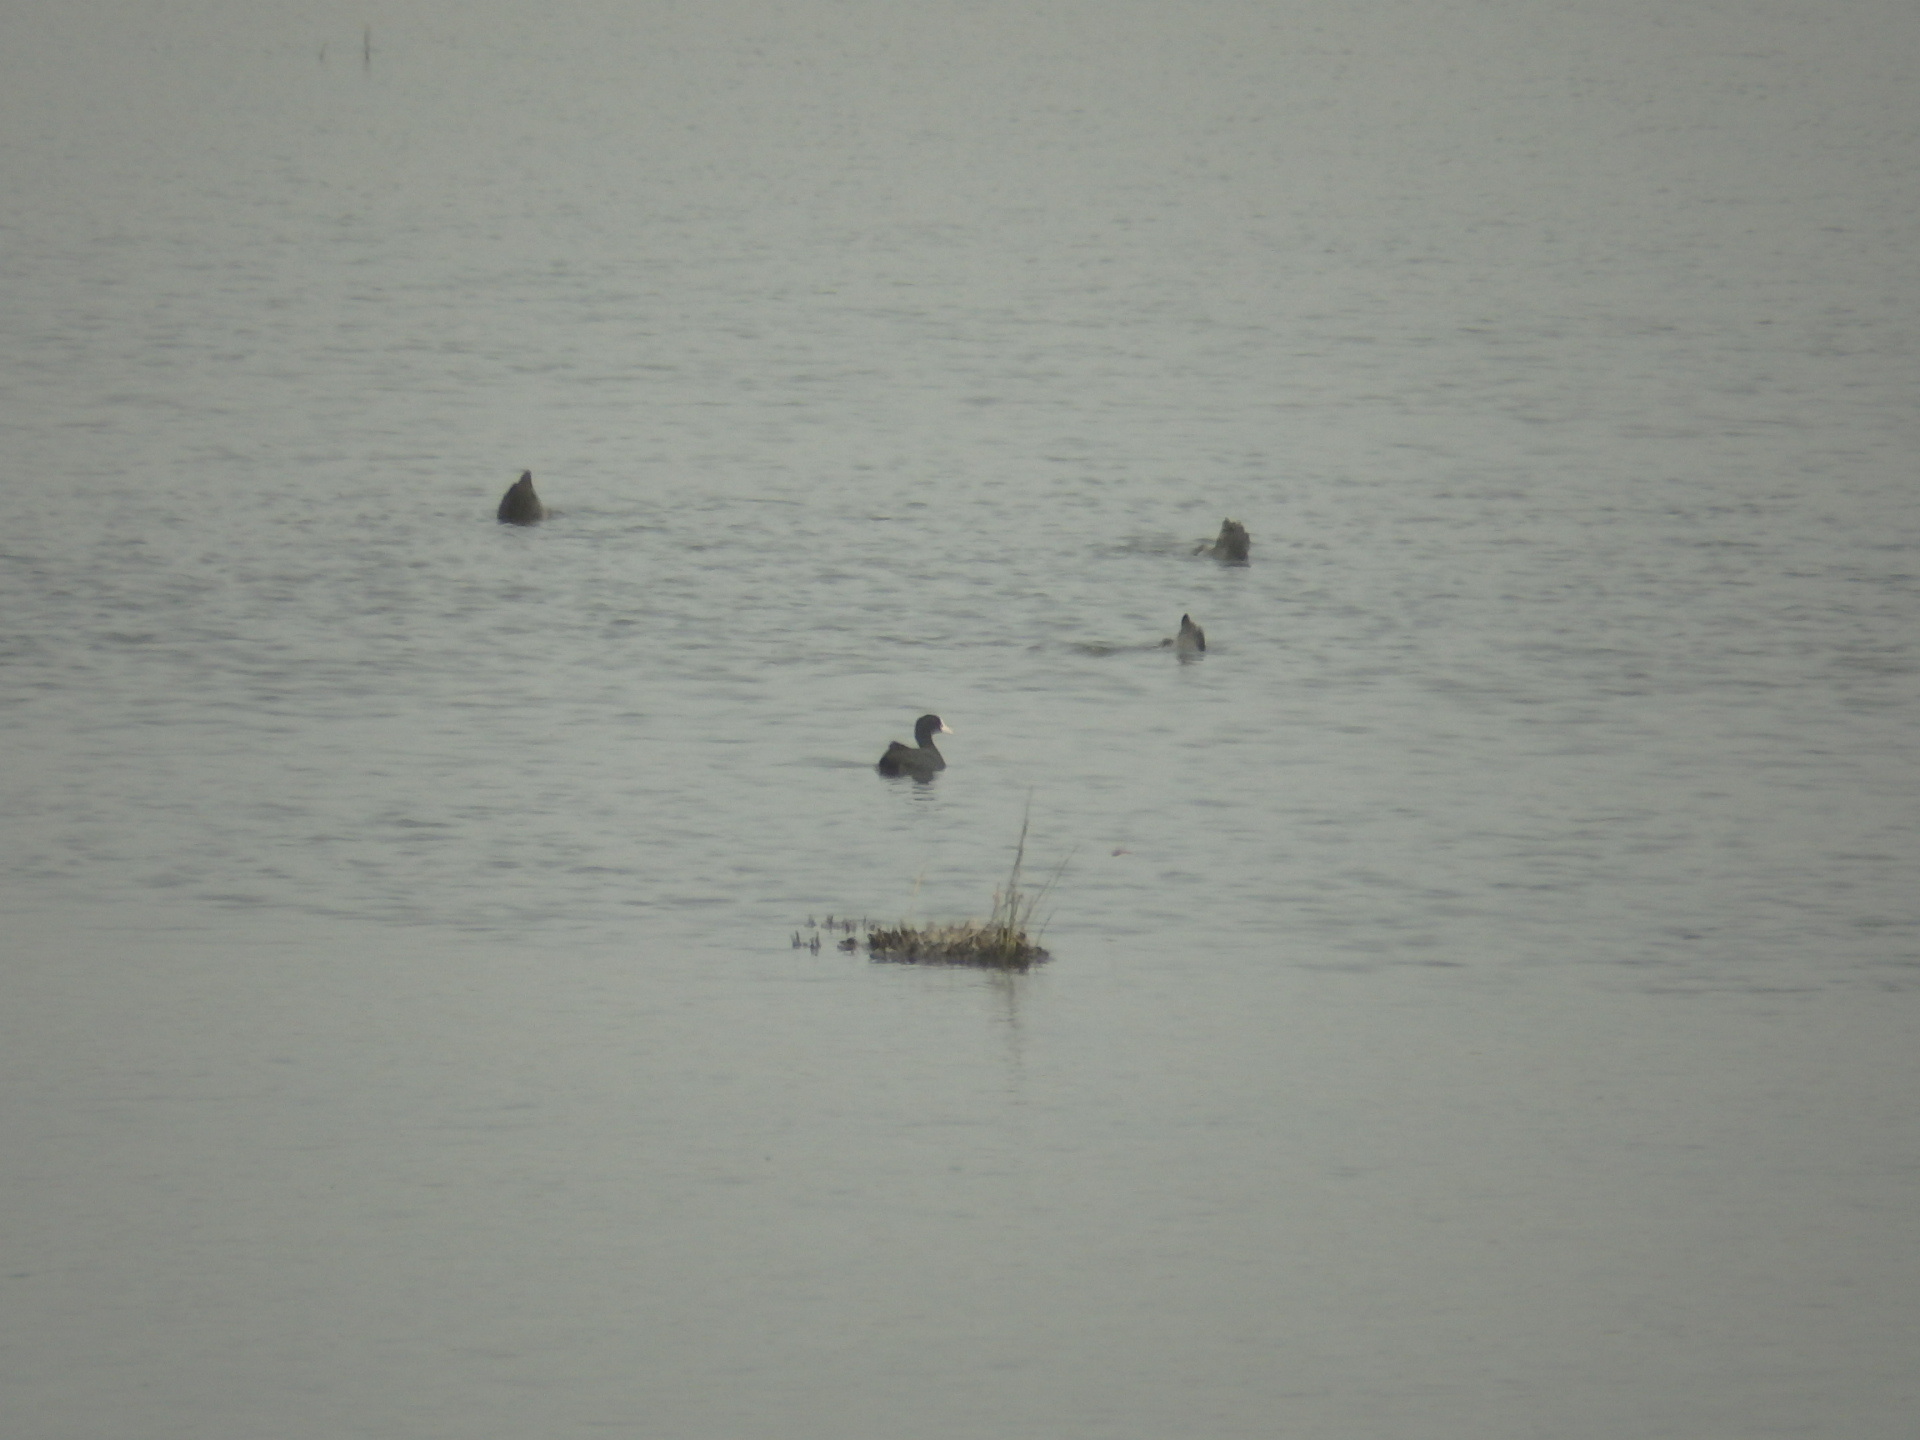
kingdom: Animalia
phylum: Chordata
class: Aves
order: Gruiformes
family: Rallidae
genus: Fulica
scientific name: Fulica atra
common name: Eurasian coot
